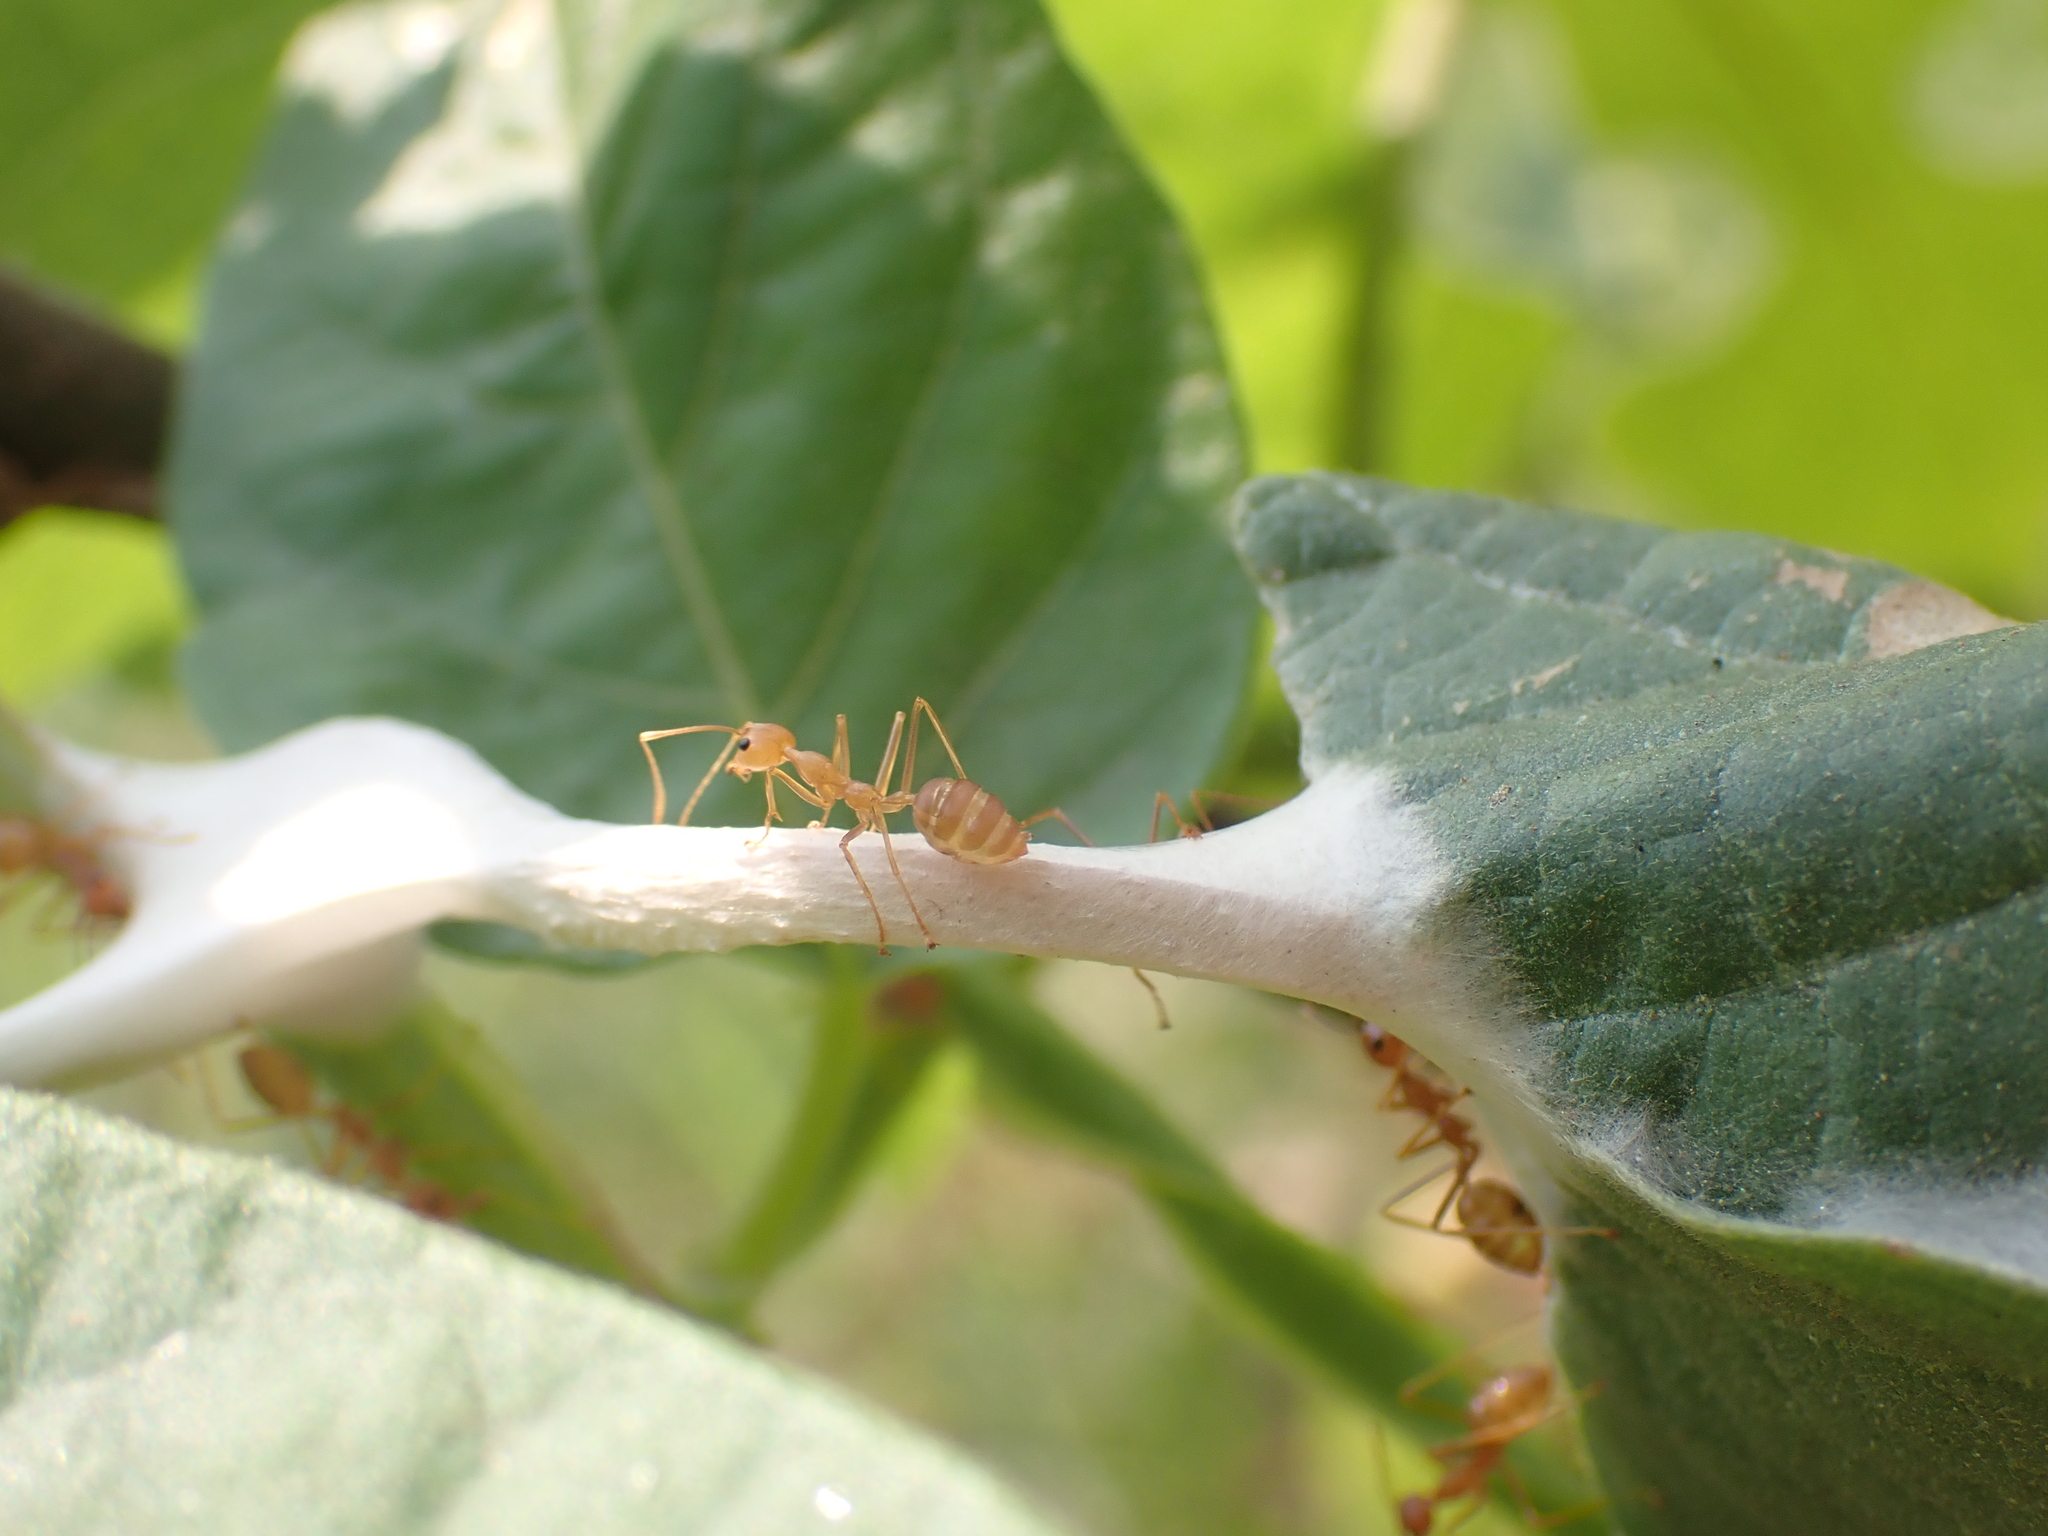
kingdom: Animalia
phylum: Arthropoda
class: Insecta
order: Hymenoptera
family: Formicidae
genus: Oecophylla
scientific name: Oecophylla smaragdina
